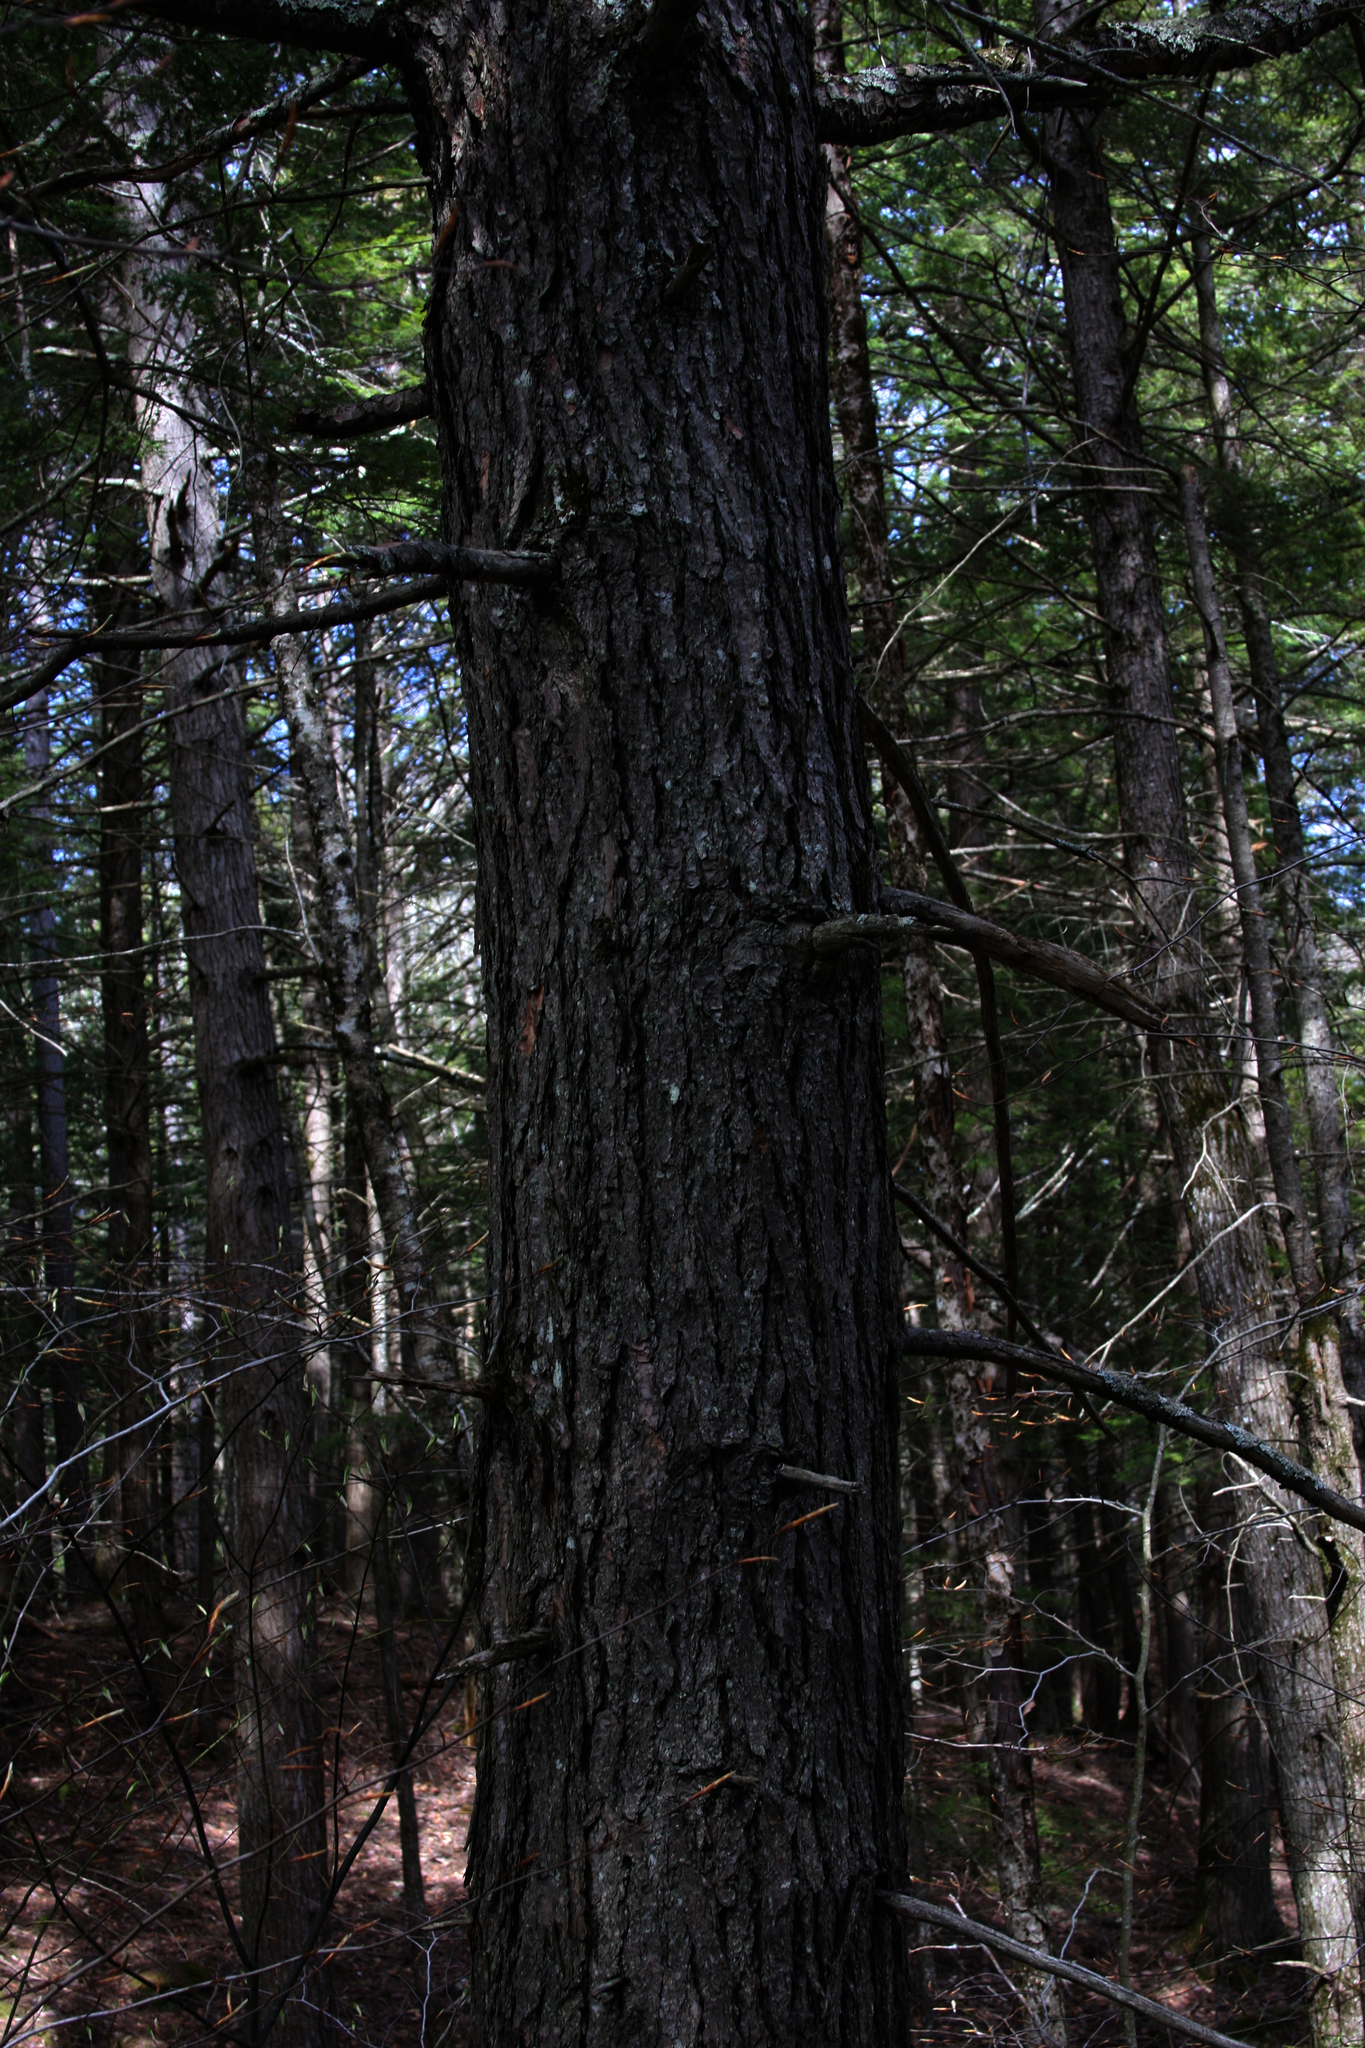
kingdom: Plantae
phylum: Tracheophyta
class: Pinopsida
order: Pinales
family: Pinaceae
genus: Tsuga
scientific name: Tsuga canadensis
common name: Eastern hemlock
